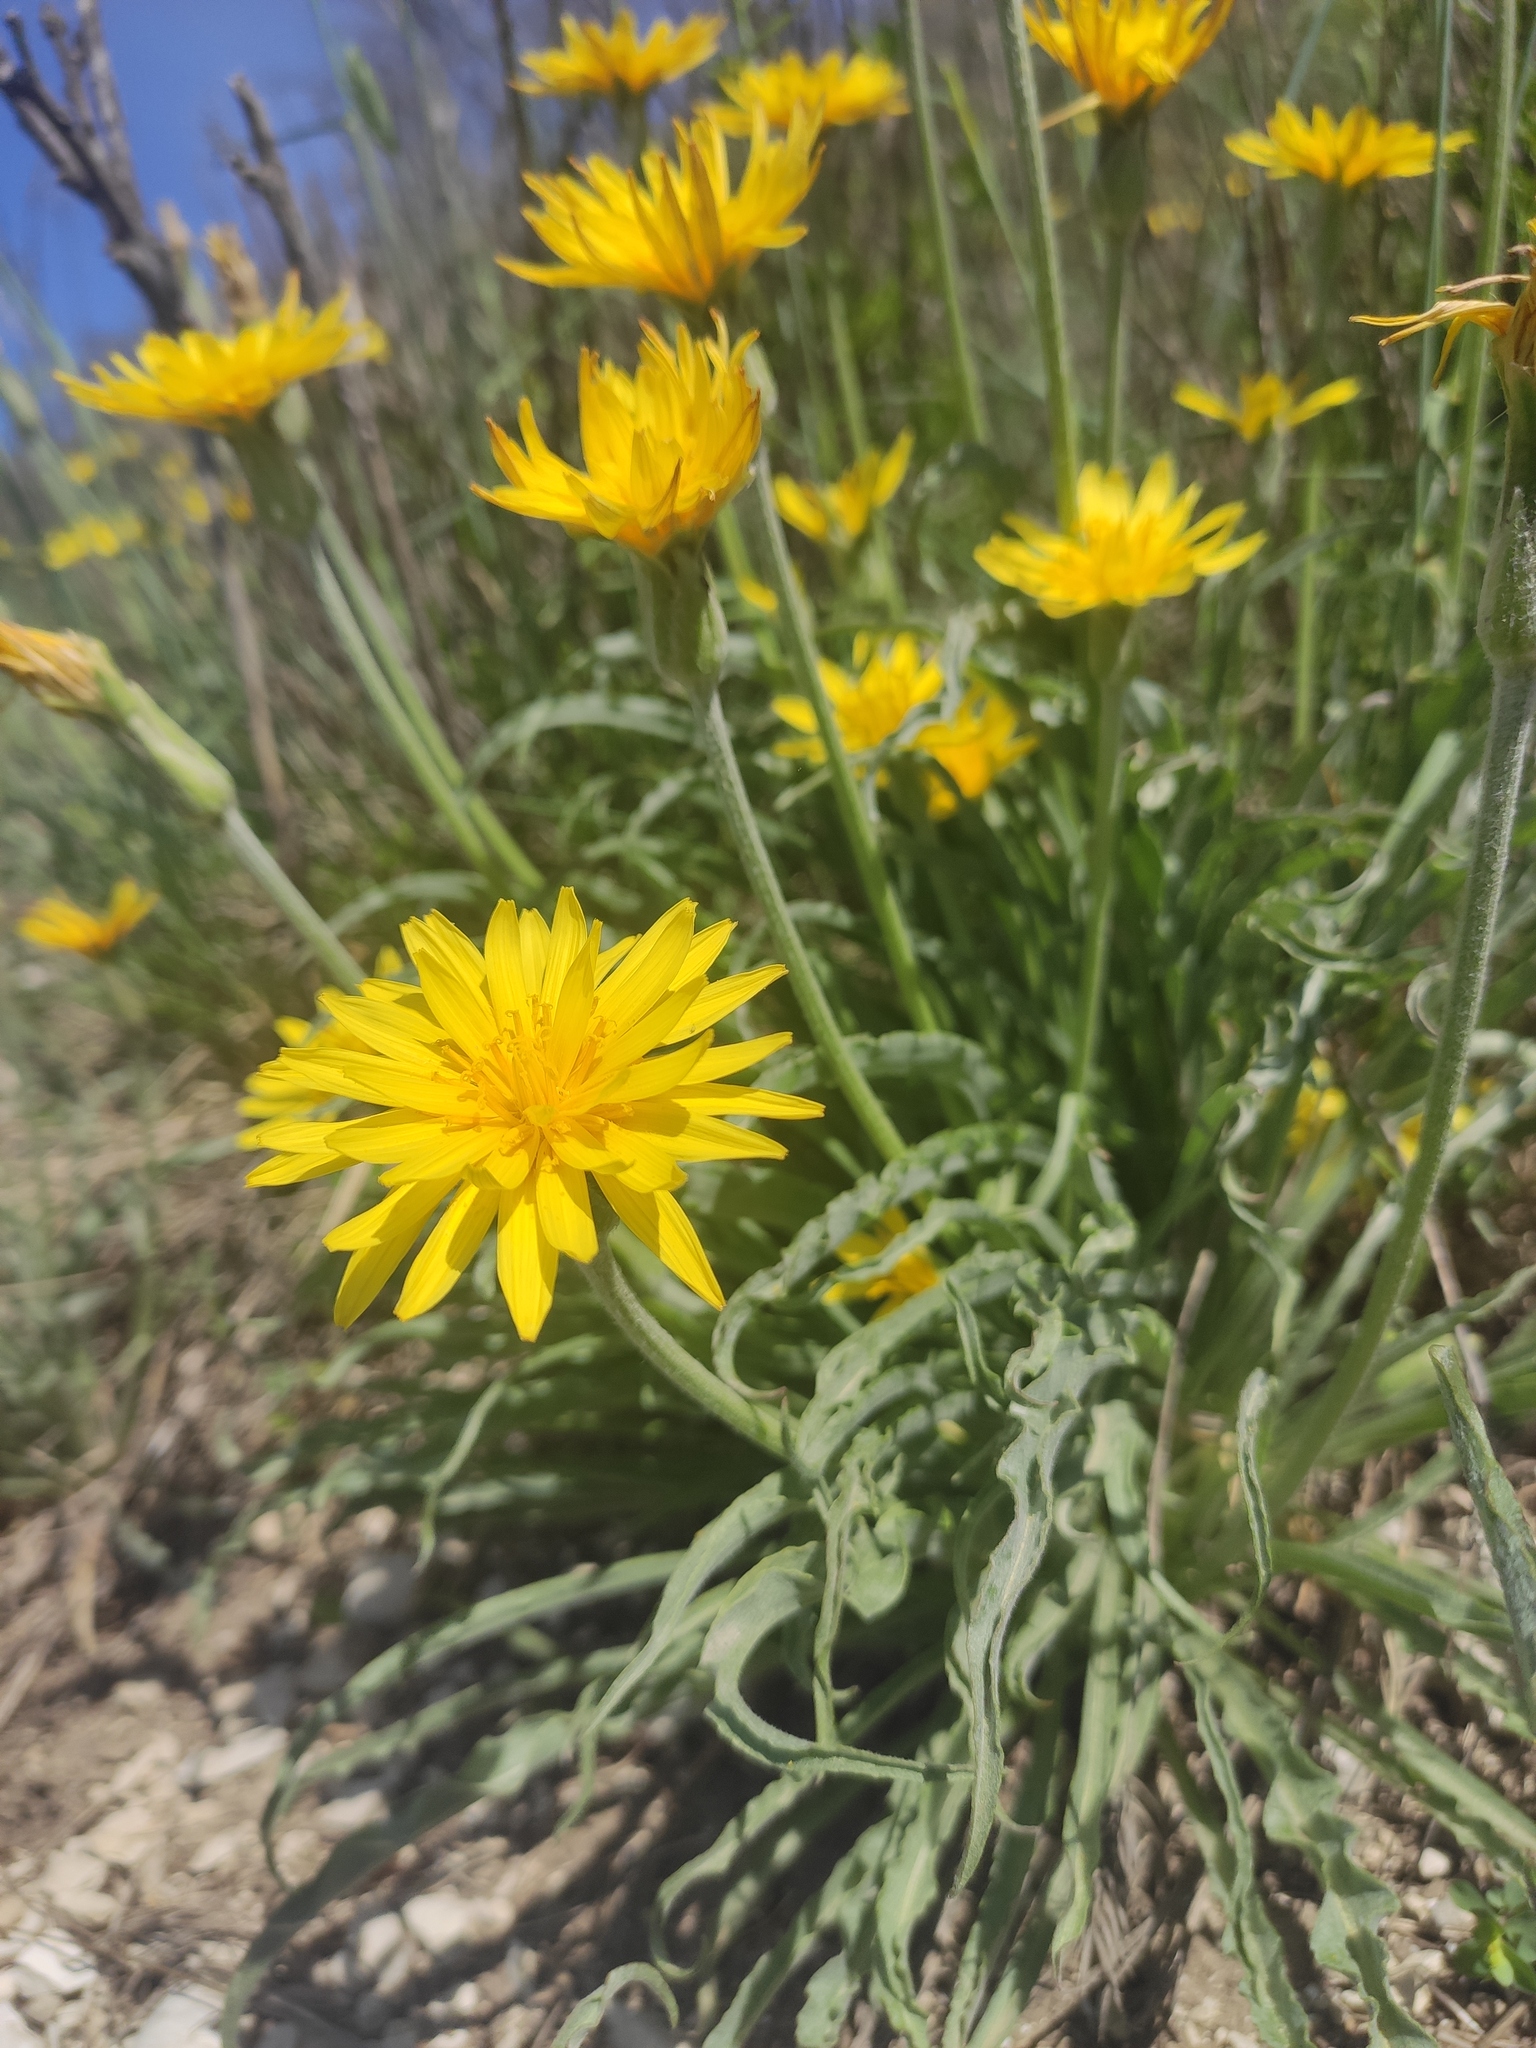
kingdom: Plantae
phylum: Tracheophyta
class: Magnoliopsida
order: Asterales
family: Asteraceae
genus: Candollea
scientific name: Candollea mollis
